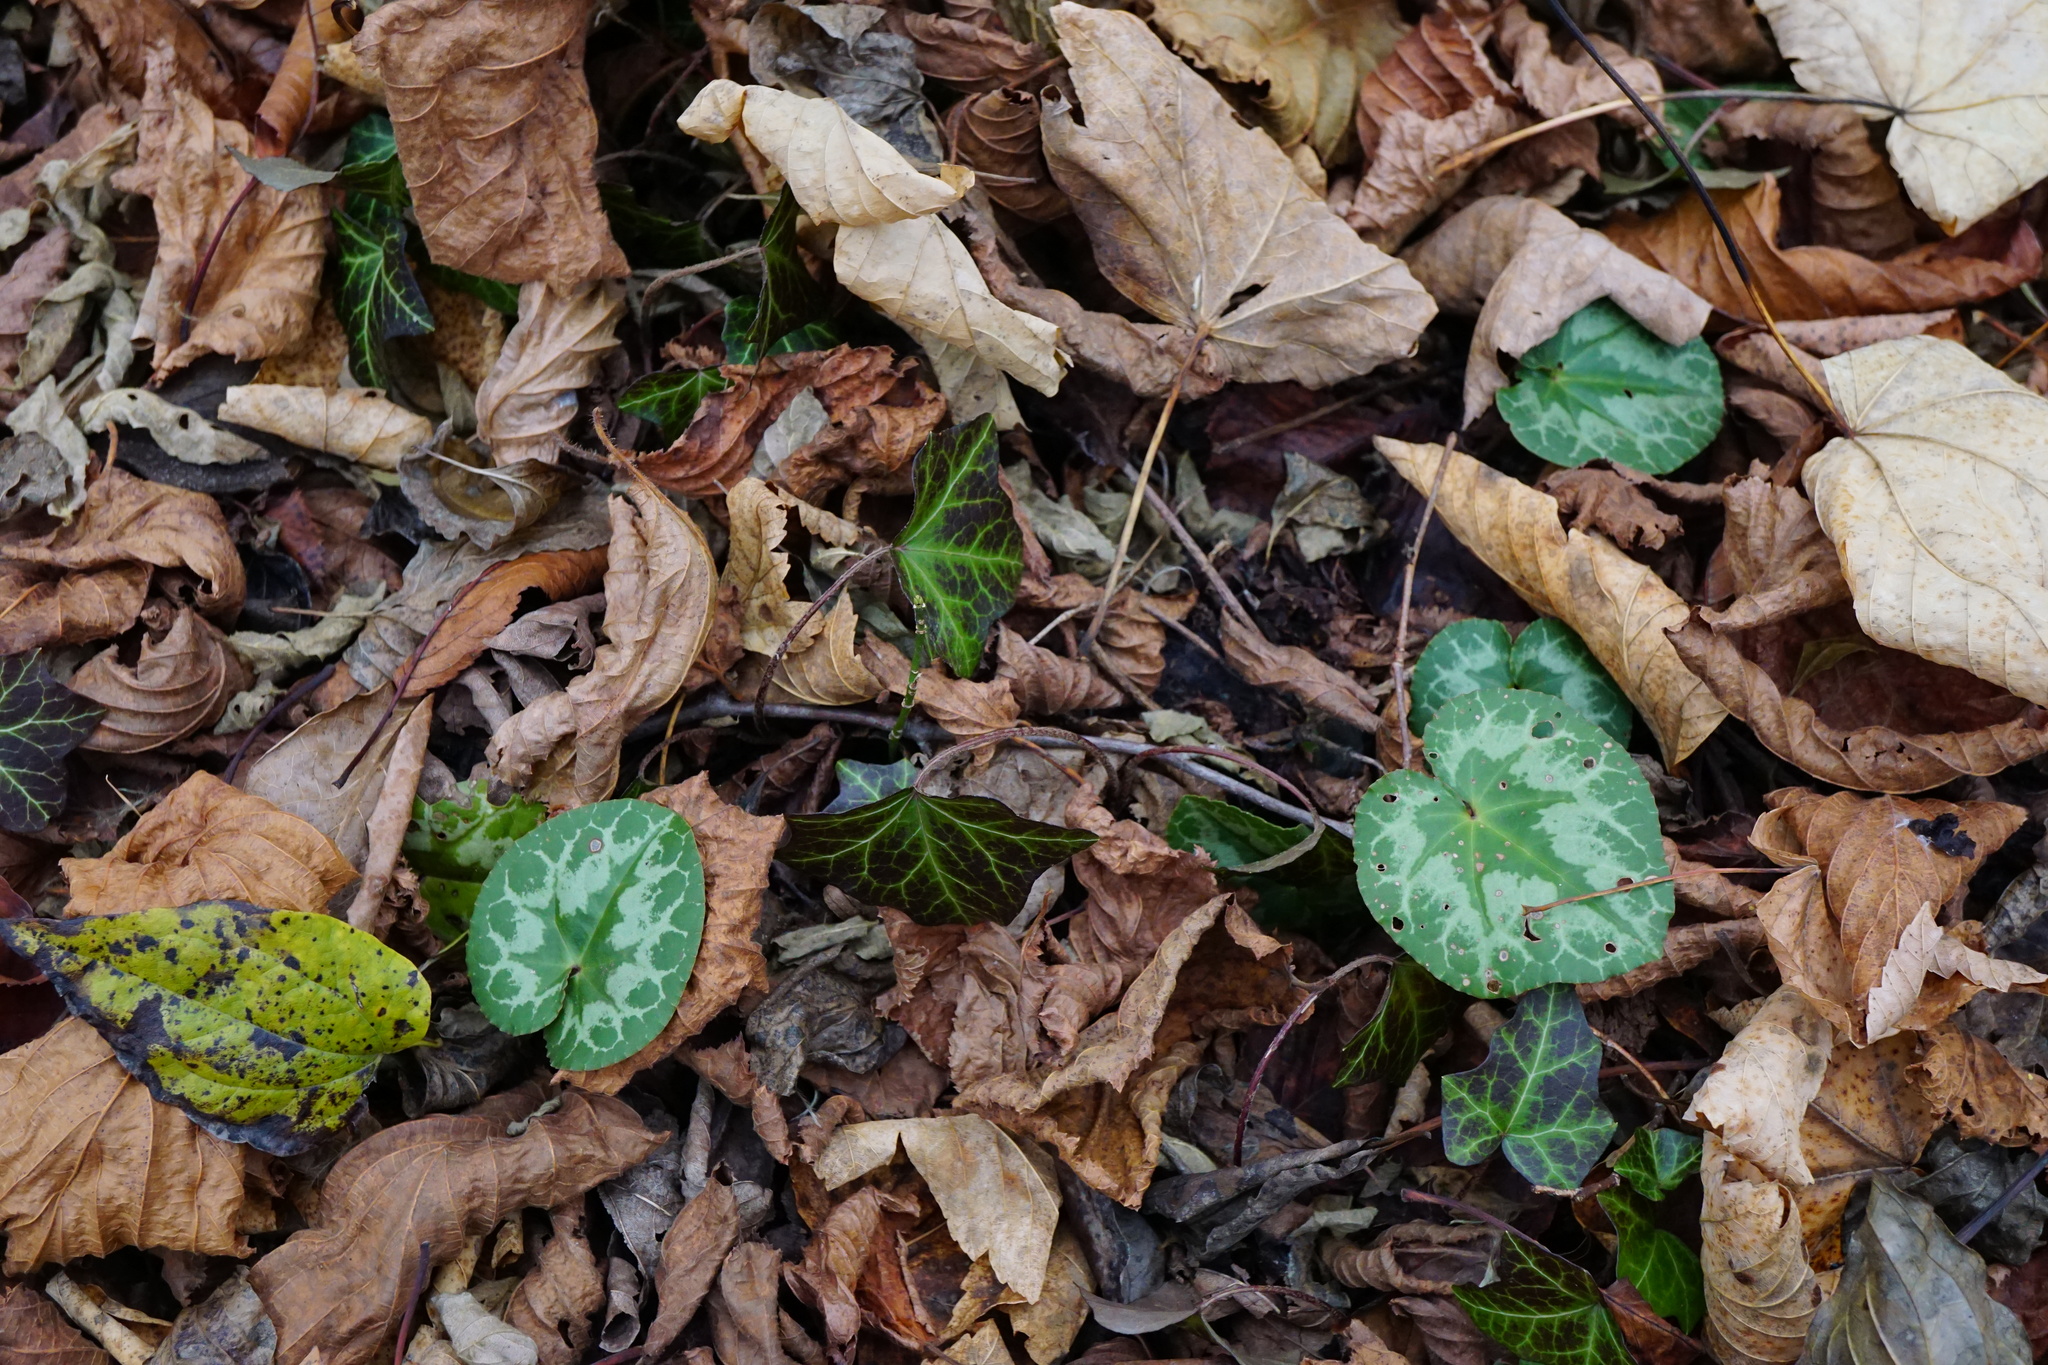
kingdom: Plantae
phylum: Tracheophyta
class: Magnoliopsida
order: Ericales
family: Primulaceae
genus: Cyclamen
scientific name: Cyclamen purpurascens
